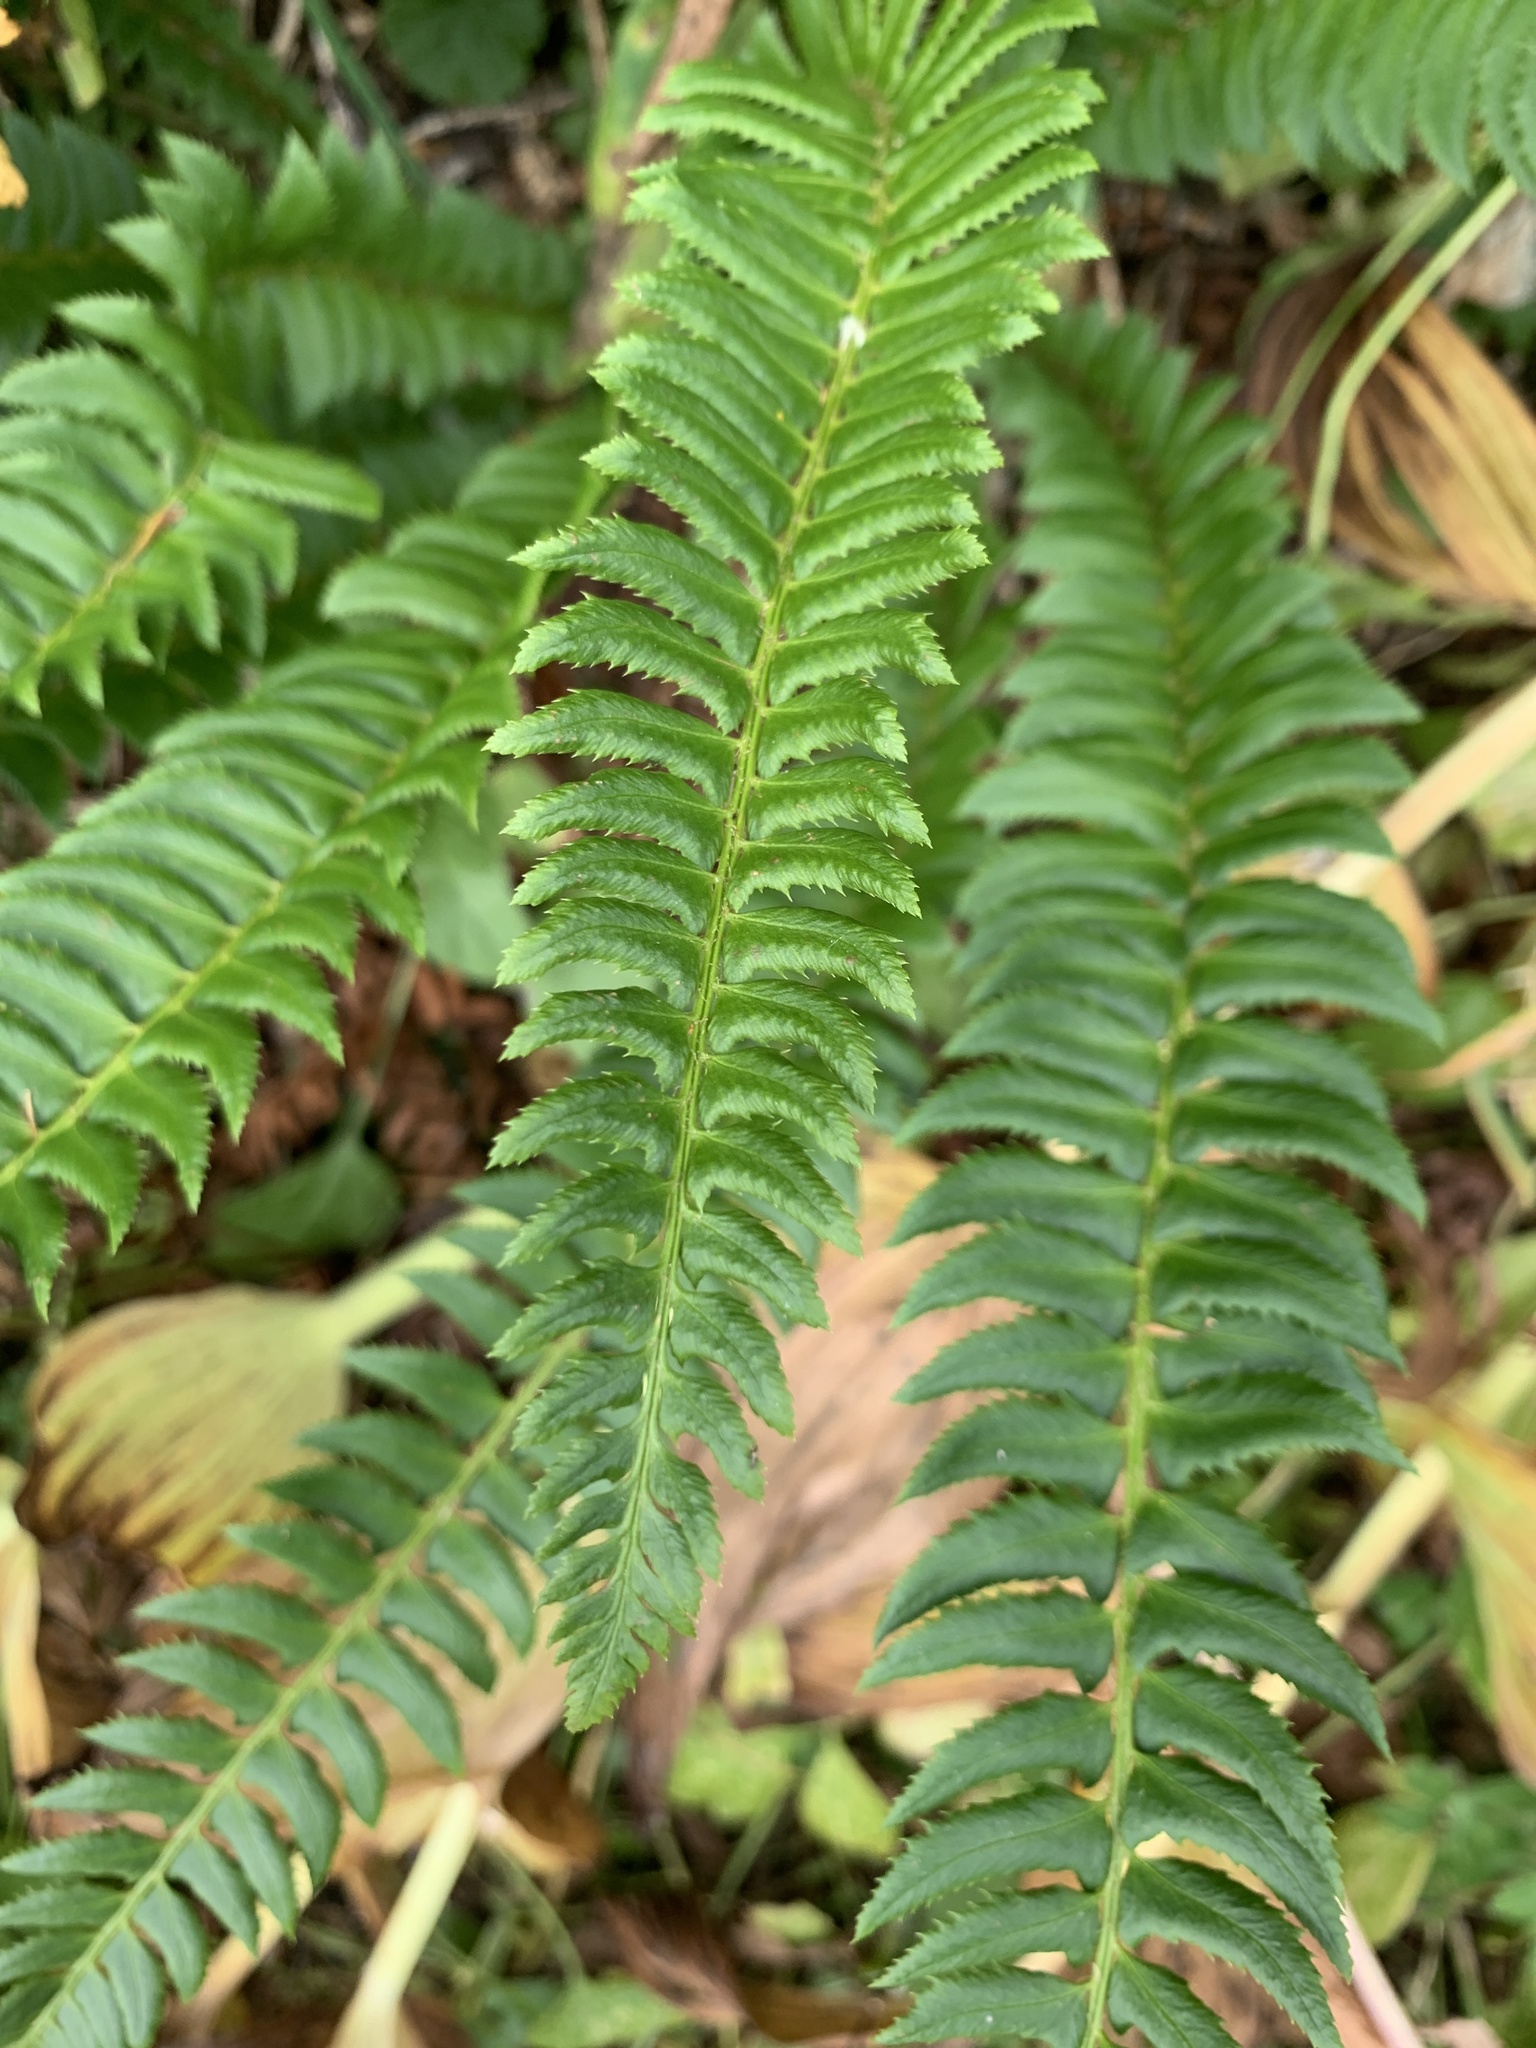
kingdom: Plantae
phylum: Tracheophyta
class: Polypodiopsida
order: Polypodiales
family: Dryopteridaceae
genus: Polystichum
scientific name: Polystichum lonchitis
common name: Holly fern
